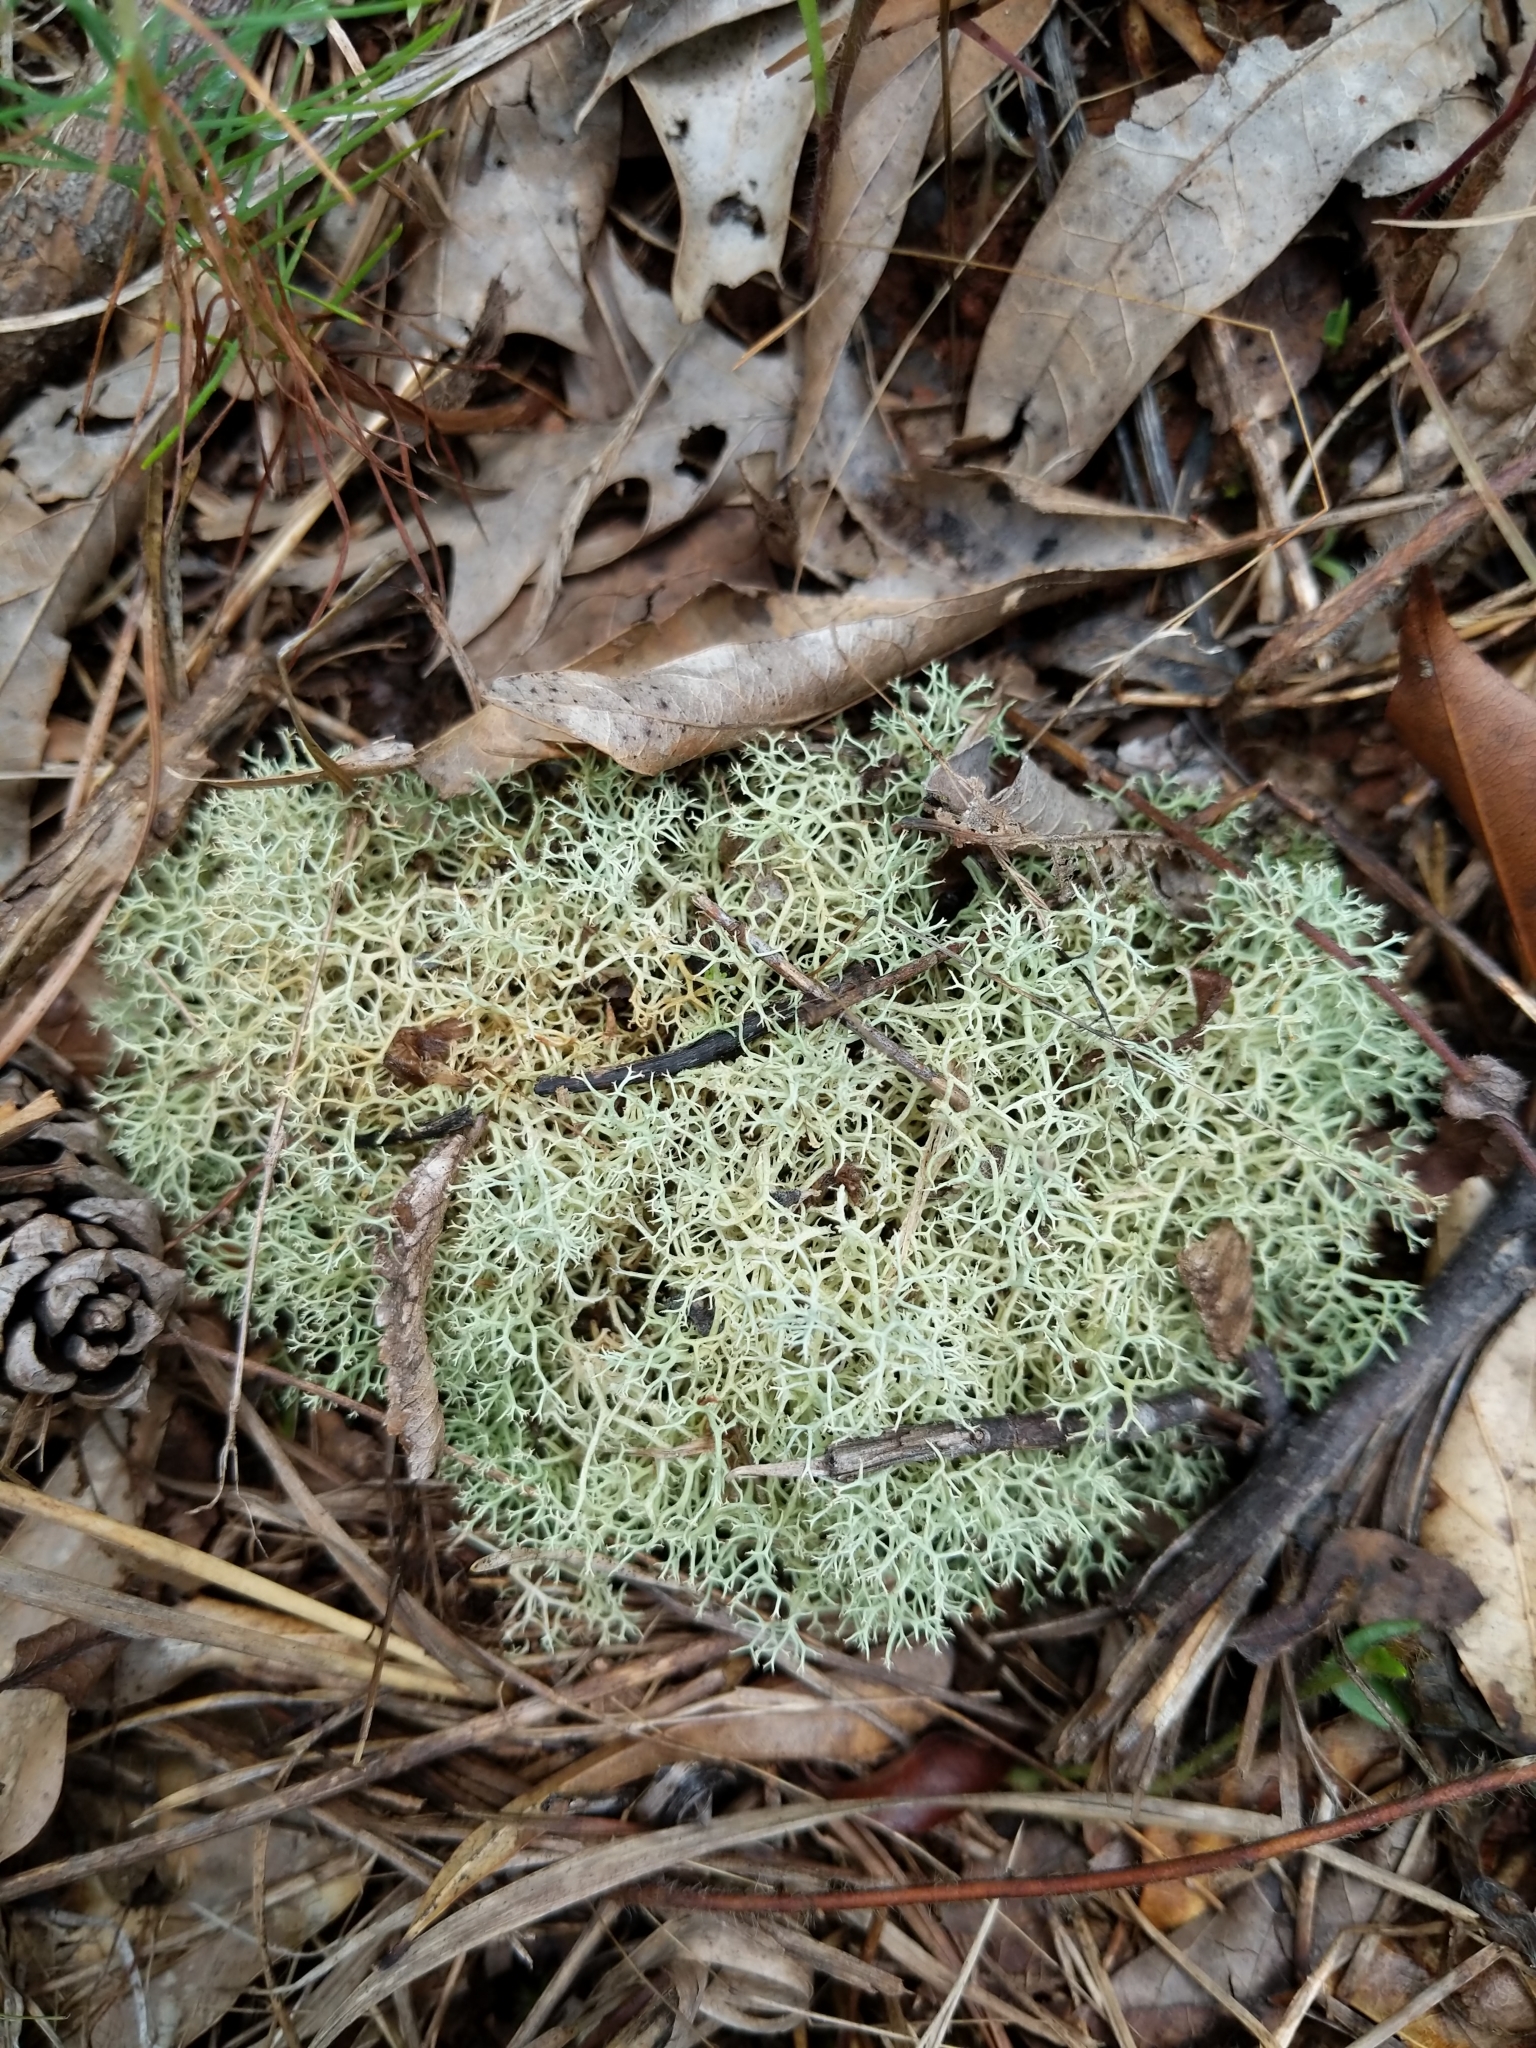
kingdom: Fungi
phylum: Ascomycota
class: Lecanoromycetes
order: Lecanorales
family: Cladoniaceae
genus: Cladonia
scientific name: Cladonia subtenuis
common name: Dixie reindeer lichen
